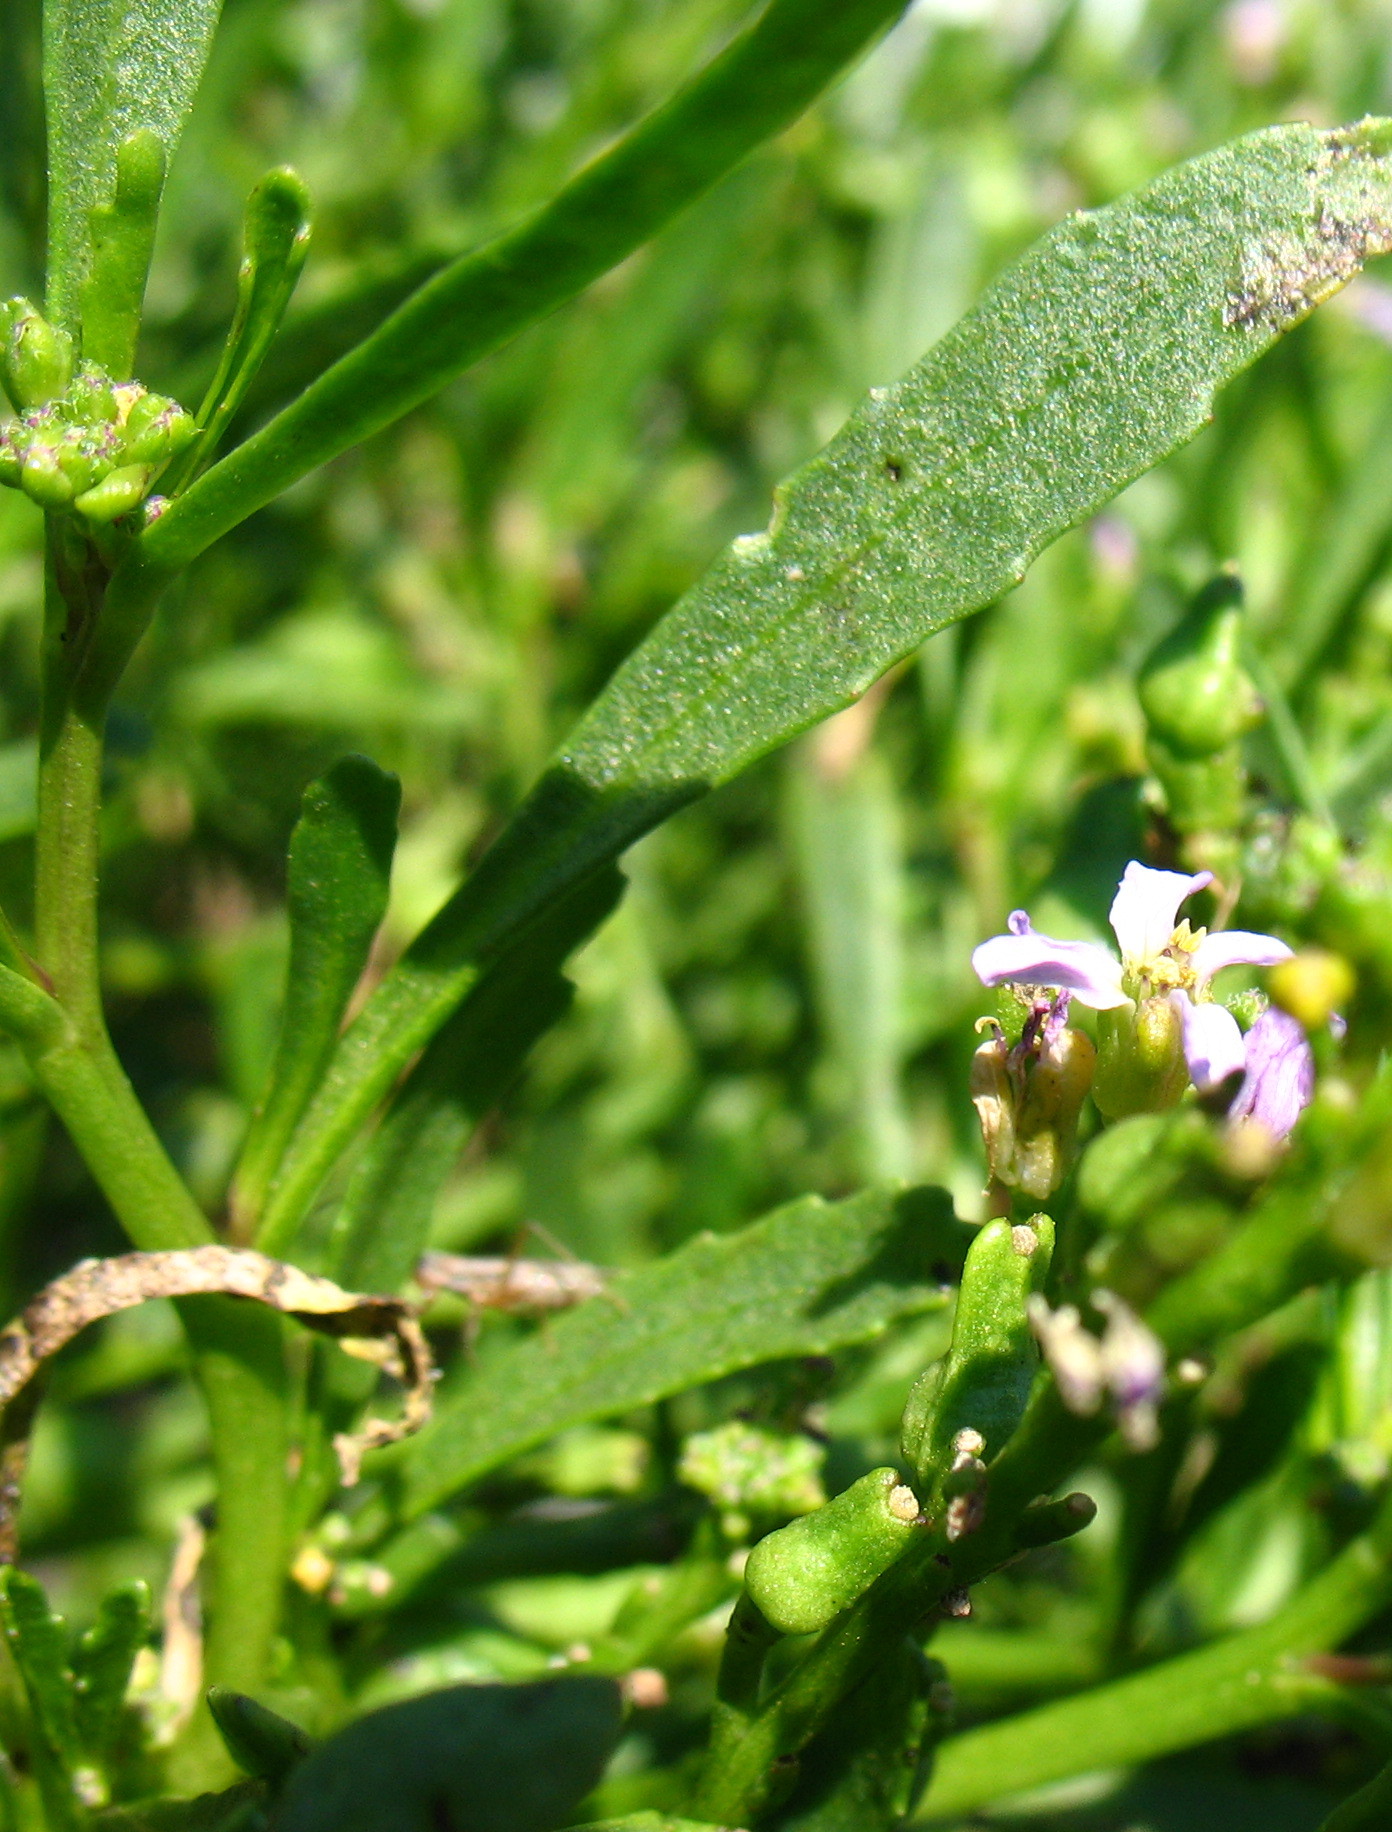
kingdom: Plantae
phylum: Tracheophyta
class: Magnoliopsida
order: Brassicales
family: Brassicaceae
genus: Cakile
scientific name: Cakile edentula
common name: American sea rocket
